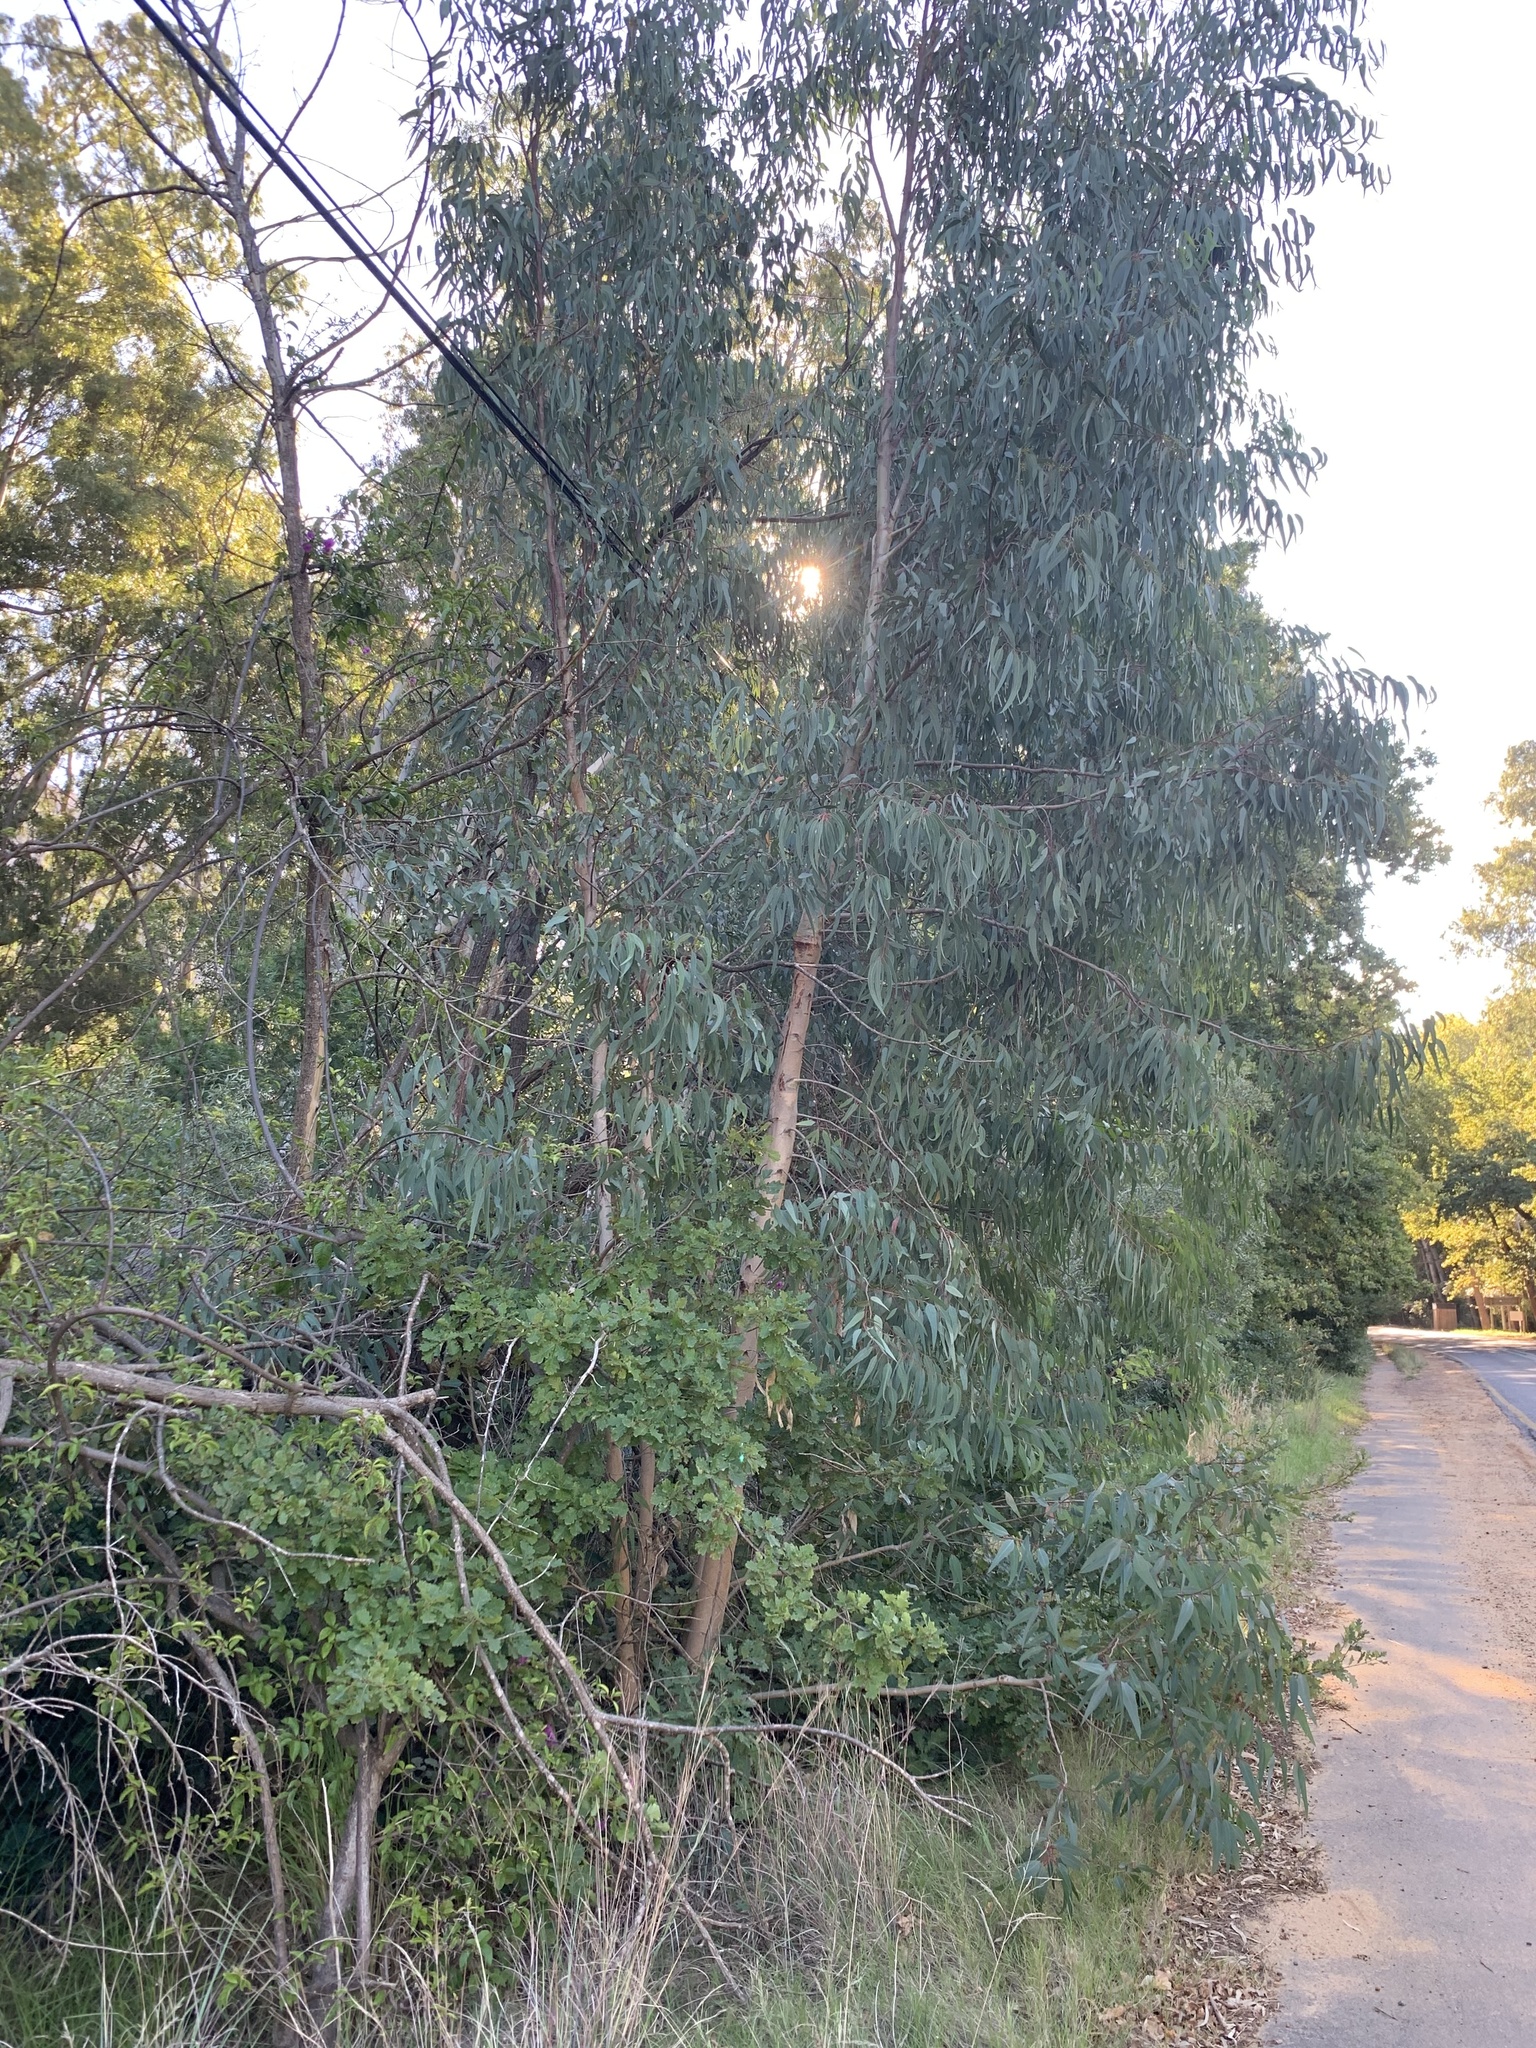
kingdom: Plantae
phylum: Tracheophyta
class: Magnoliopsida
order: Myrtales
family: Myrtaceae
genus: Eucalyptus
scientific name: Eucalyptus camaldulensis
